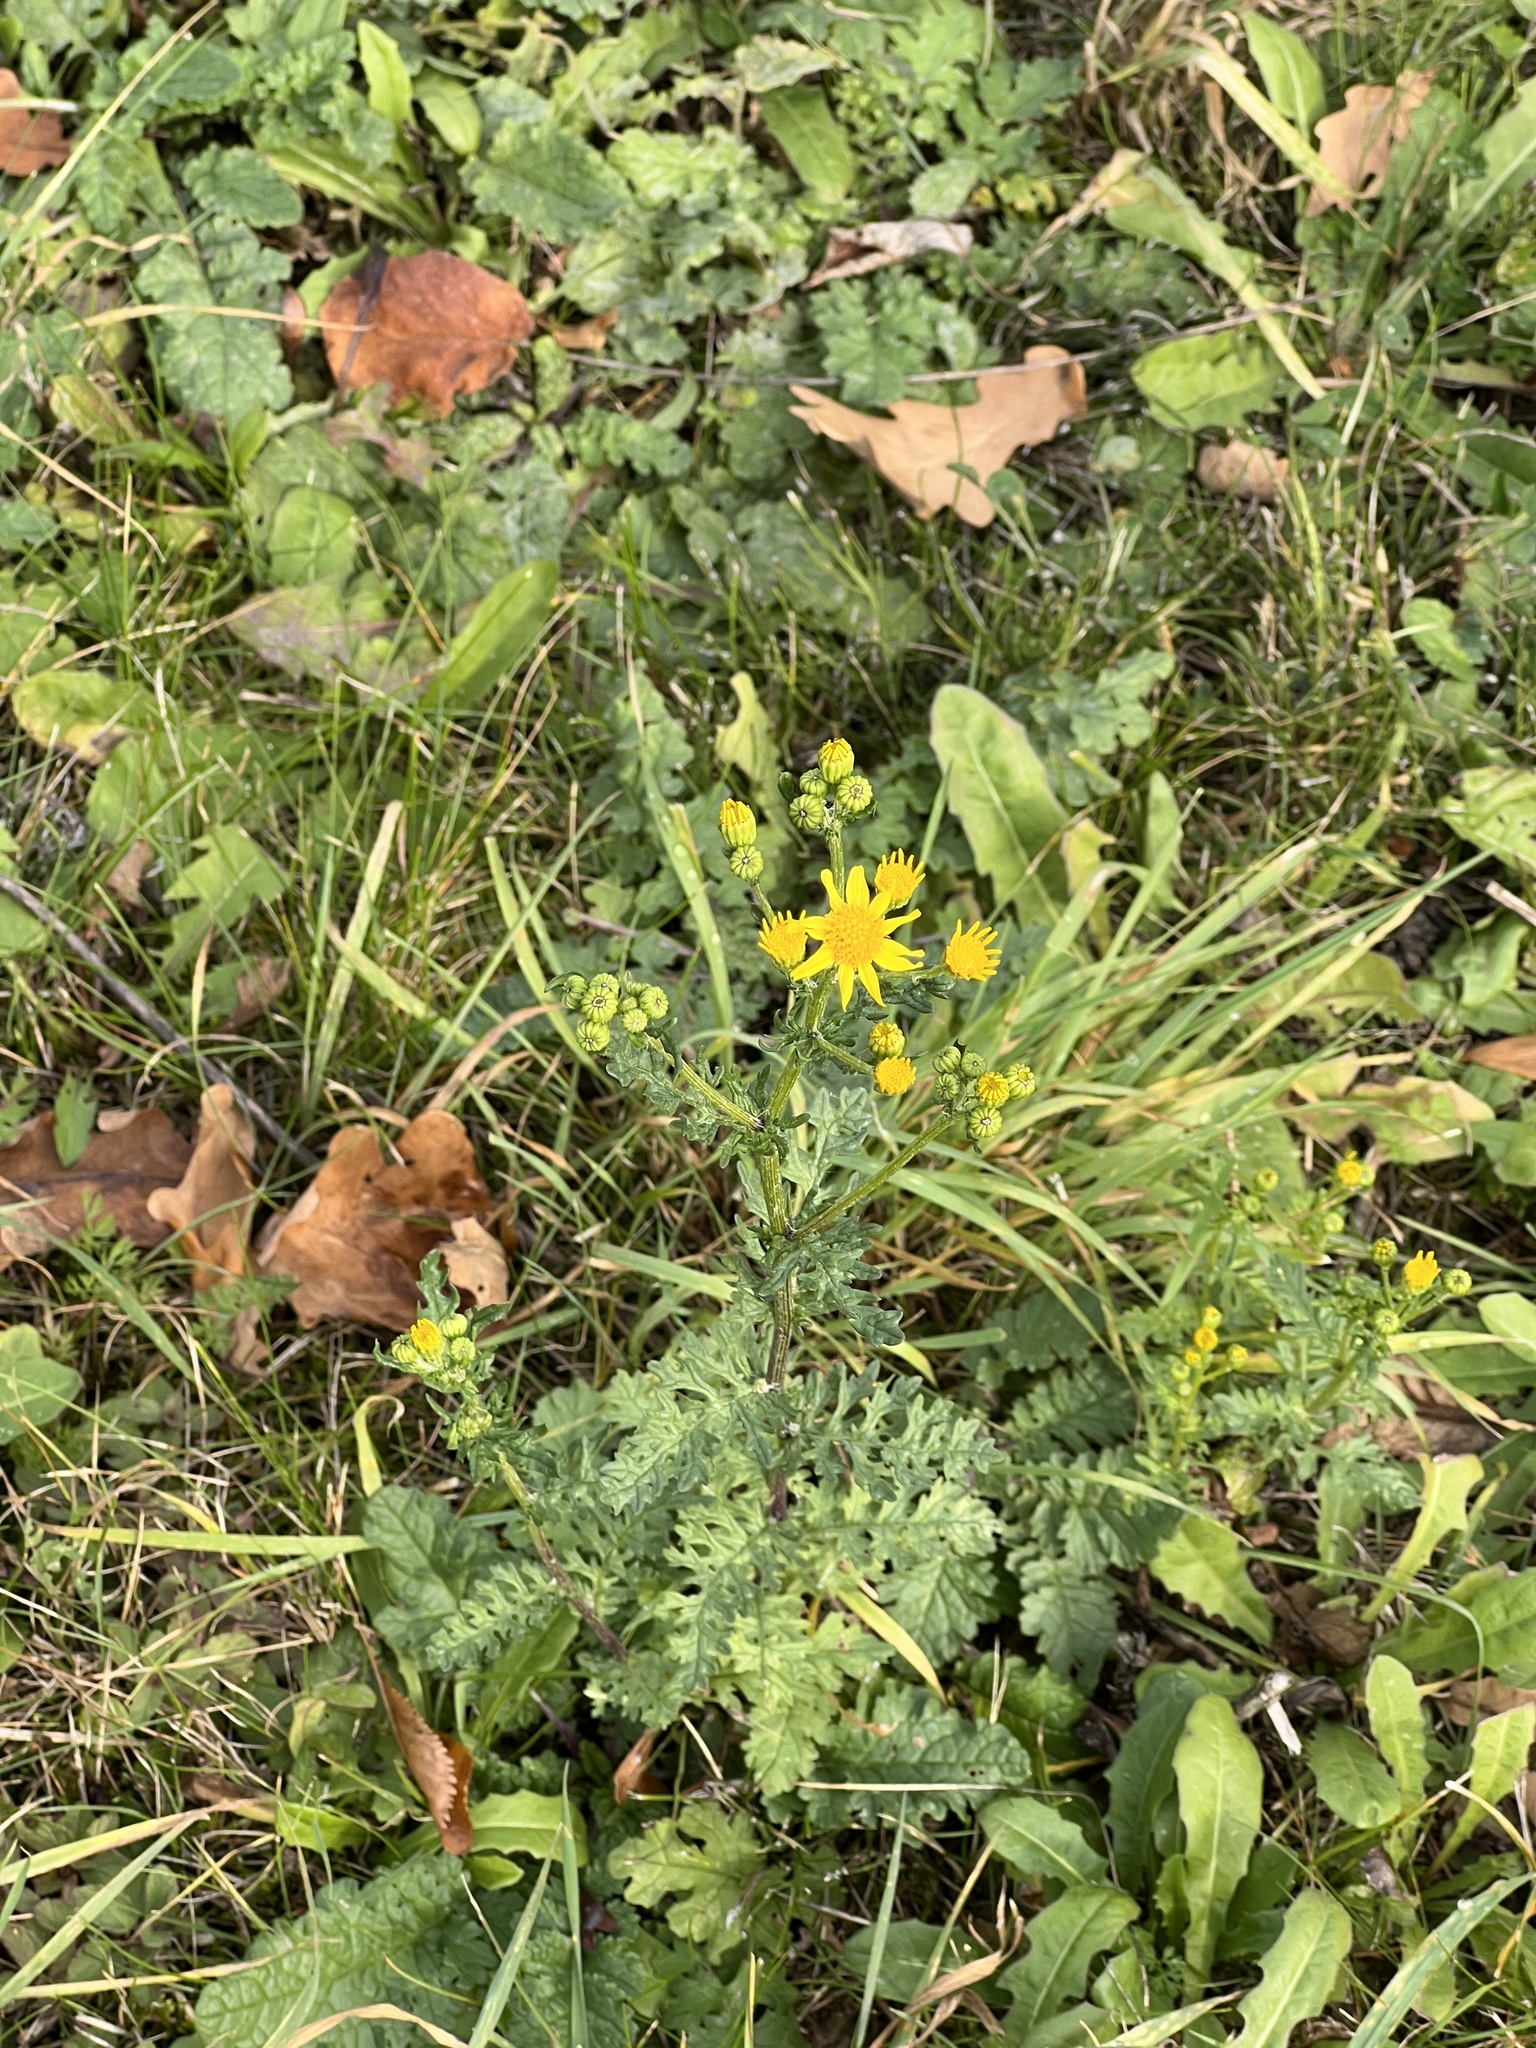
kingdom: Plantae
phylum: Tracheophyta
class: Magnoliopsida
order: Asterales
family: Asteraceae
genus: Jacobaea
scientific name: Jacobaea vulgaris
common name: Stinking willie
